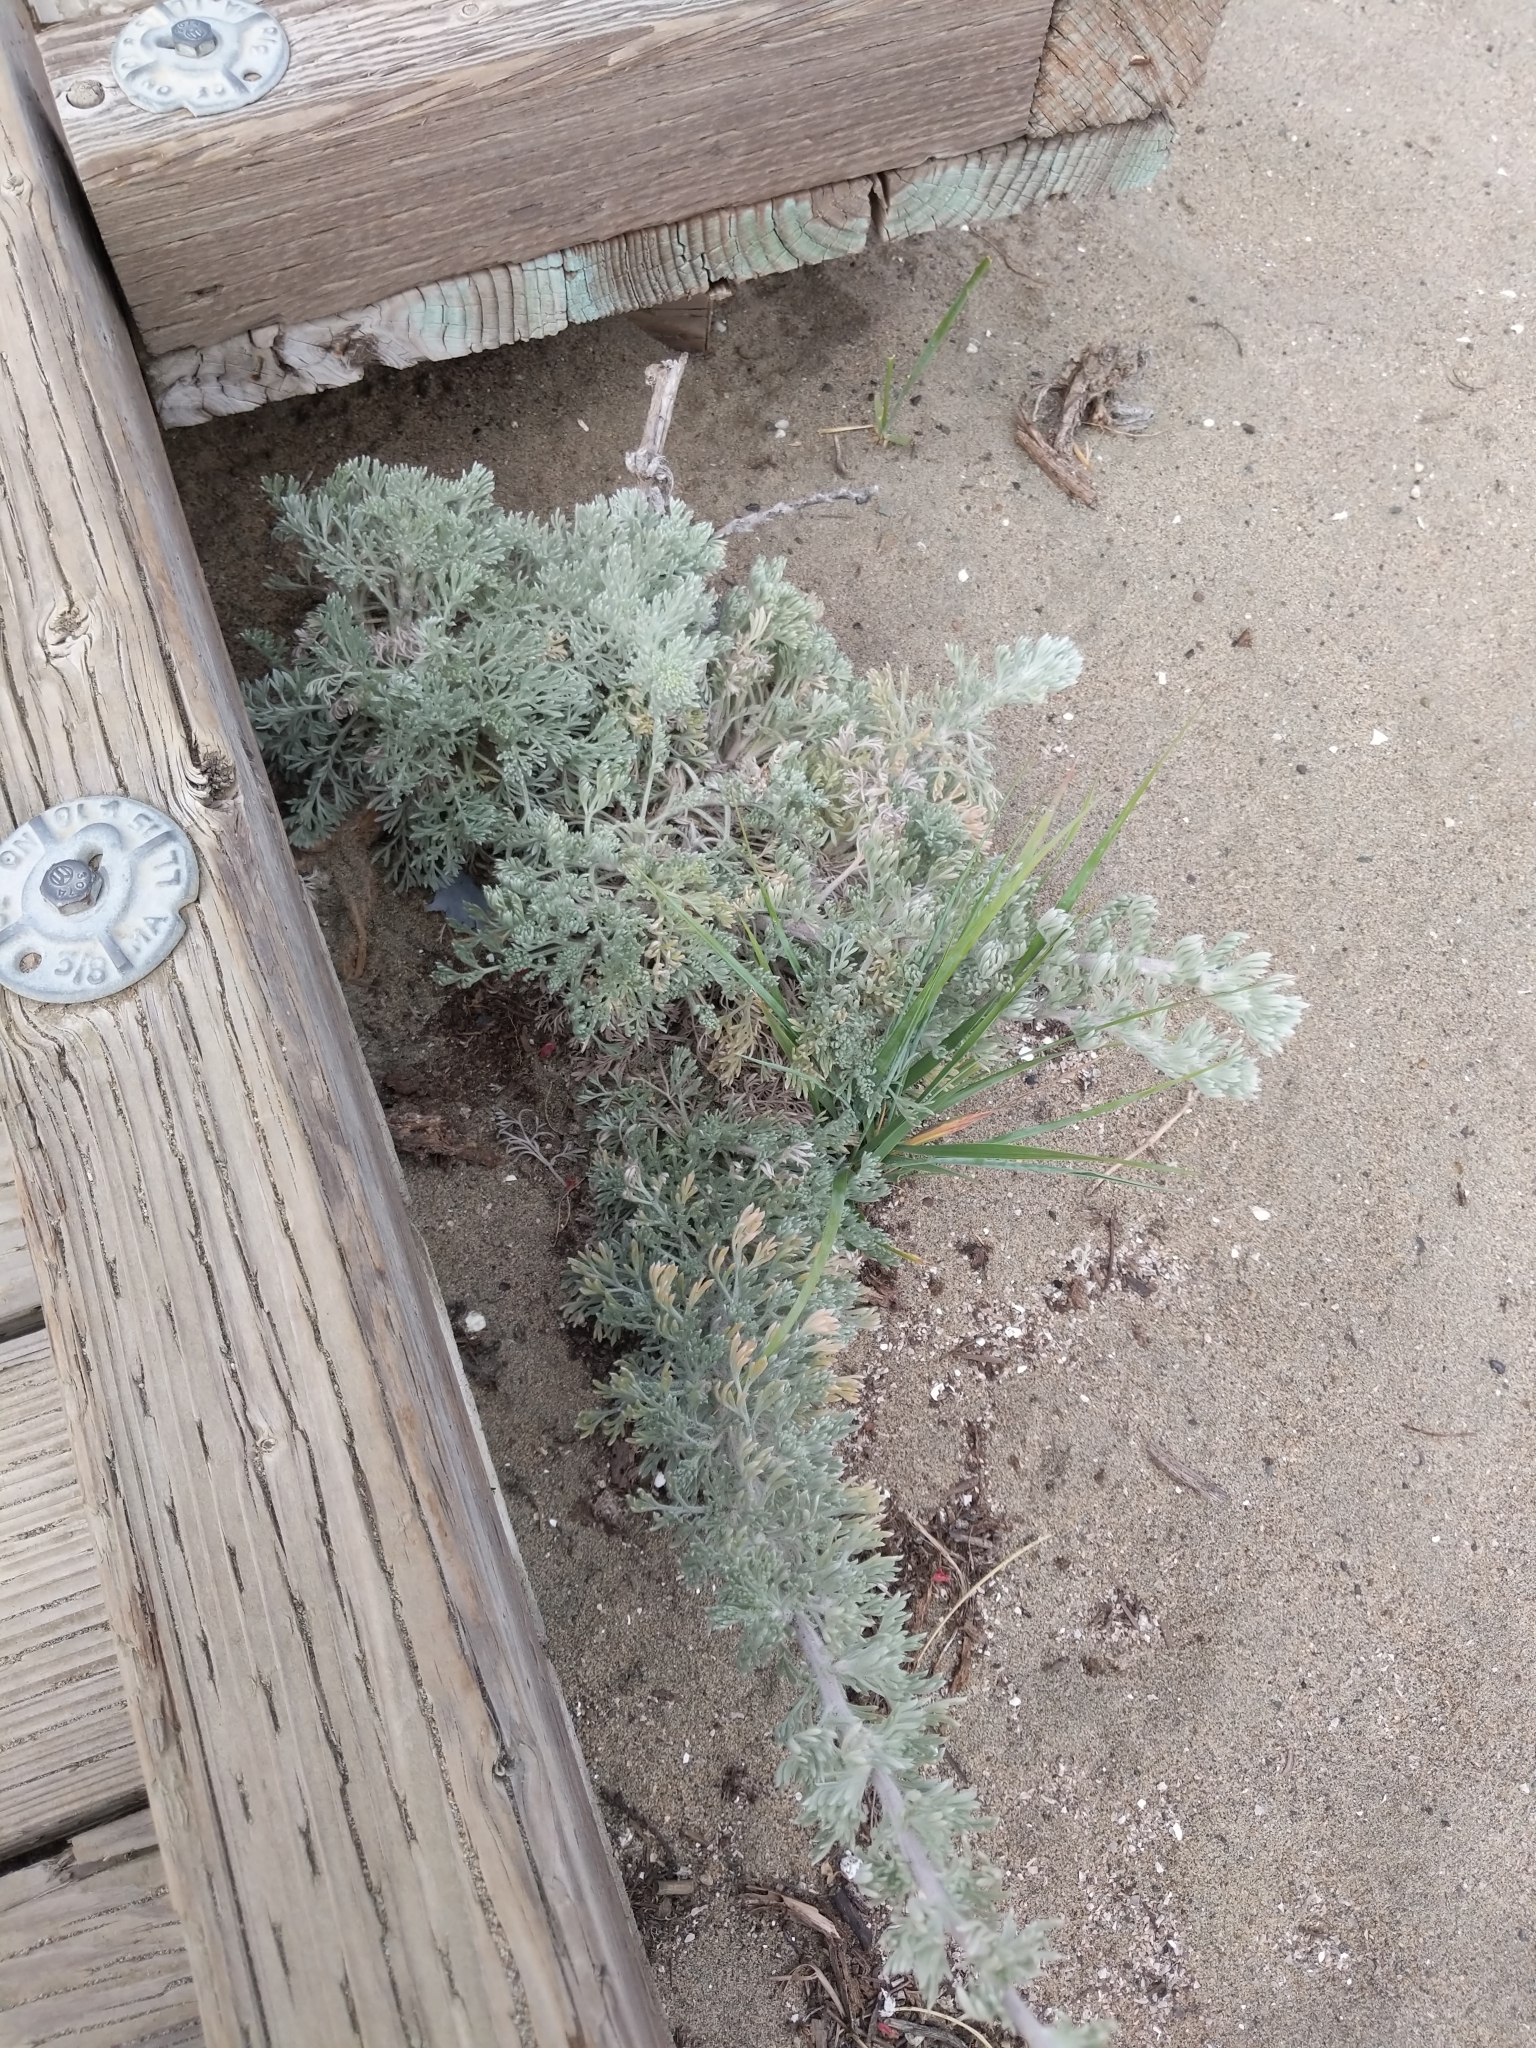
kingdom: Plantae
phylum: Tracheophyta
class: Magnoliopsida
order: Asterales
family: Asteraceae
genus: Artemisia
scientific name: Artemisia pycnocephala
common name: Coastal sagewort
